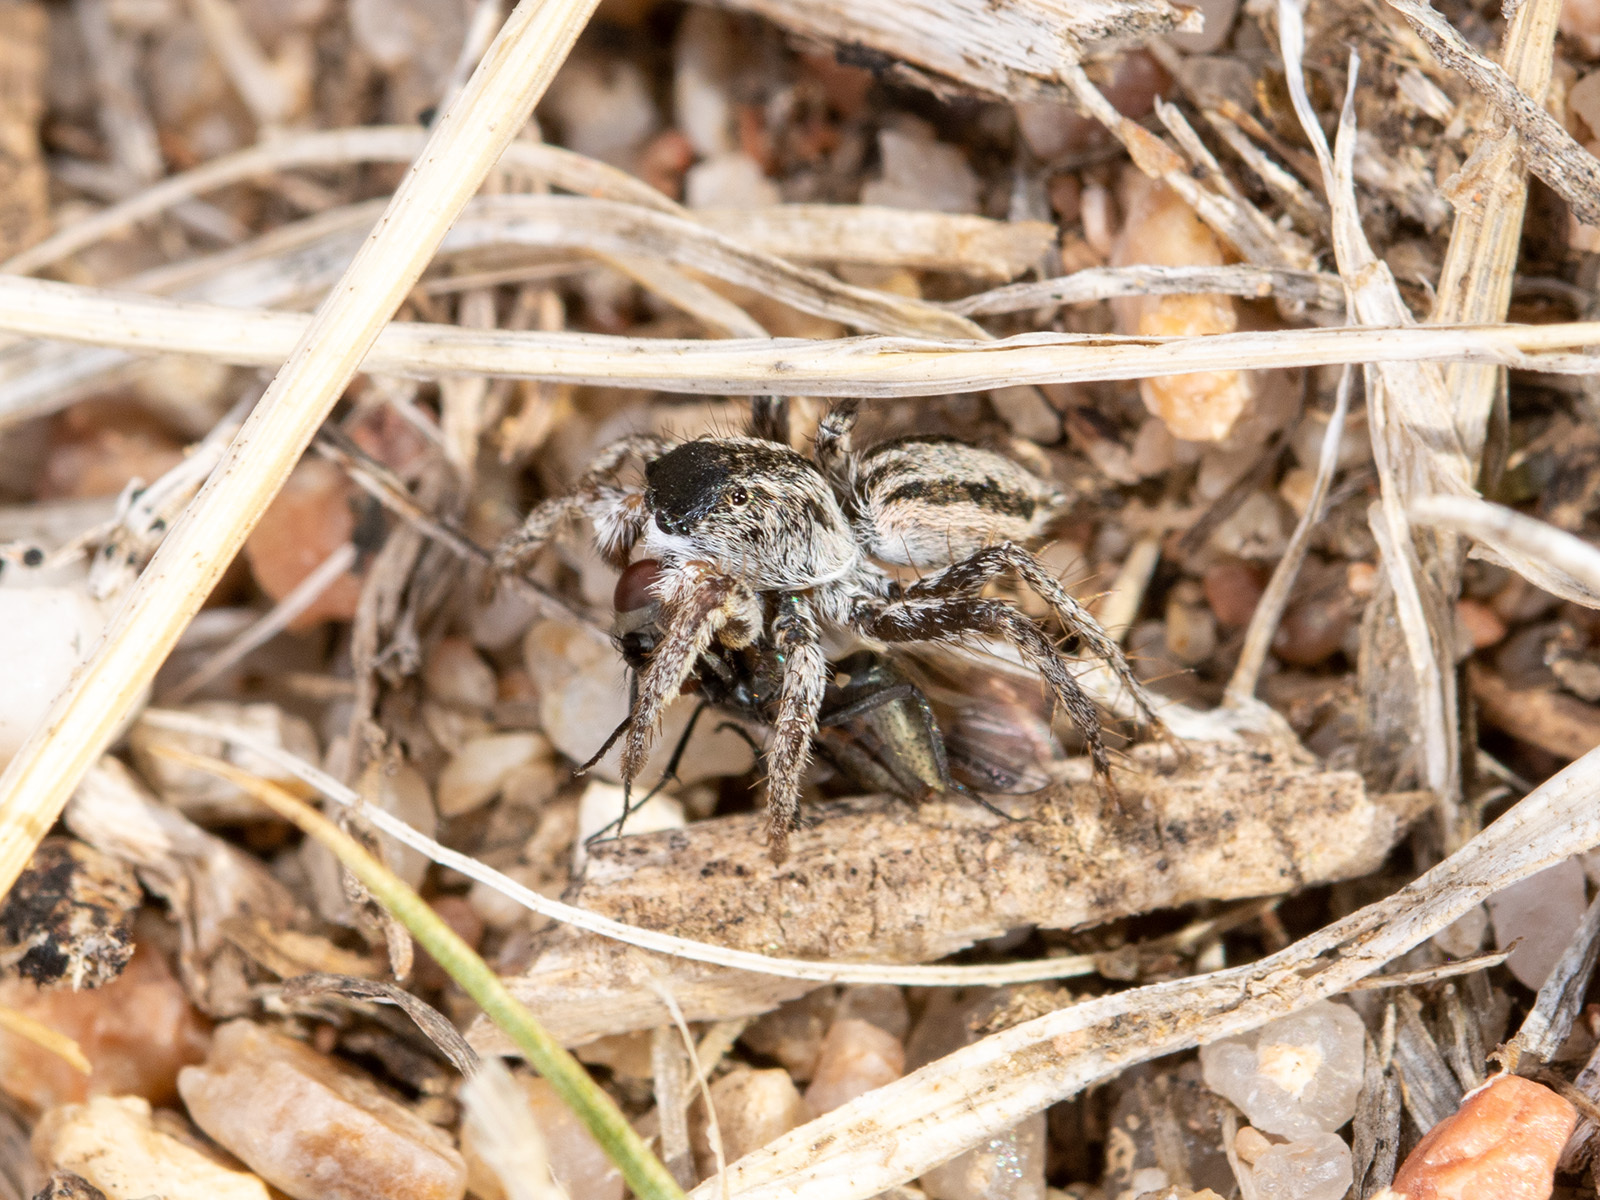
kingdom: Animalia
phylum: Arthropoda
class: Arachnida
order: Araneae
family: Salticidae
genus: Aelurillus
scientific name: Aelurillus m-nigrum
